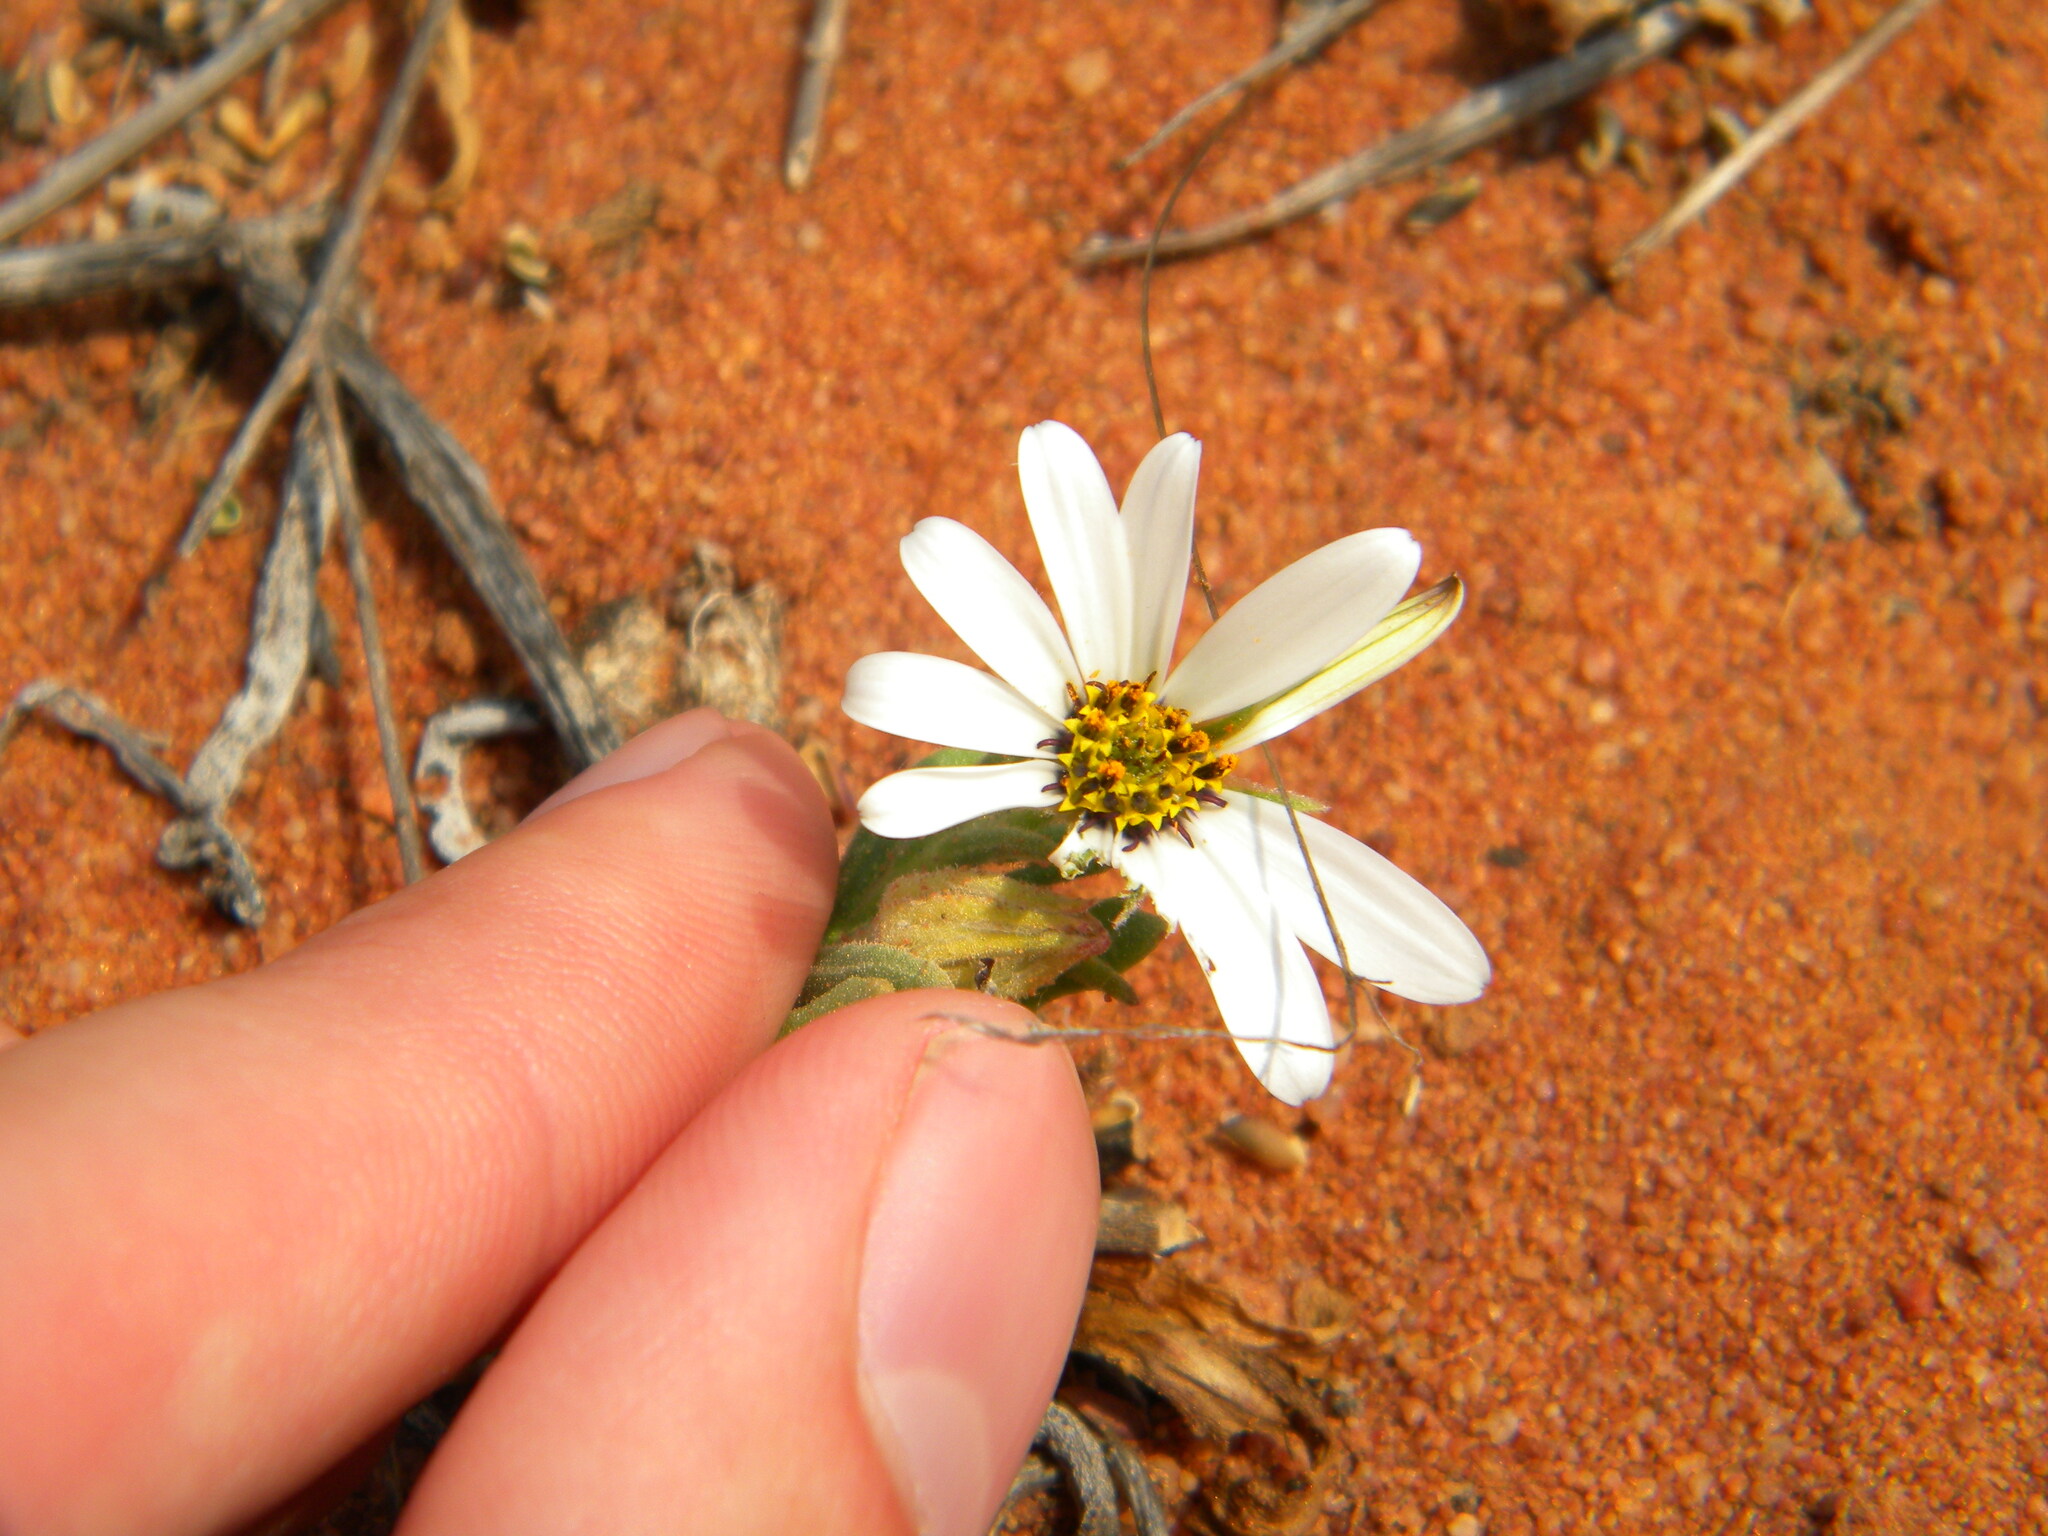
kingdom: Plantae
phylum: Tracheophyta
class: Magnoliopsida
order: Asterales
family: Asteraceae
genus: Dimorphotheca
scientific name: Dimorphotheca pluvialis
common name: Weather prophet
